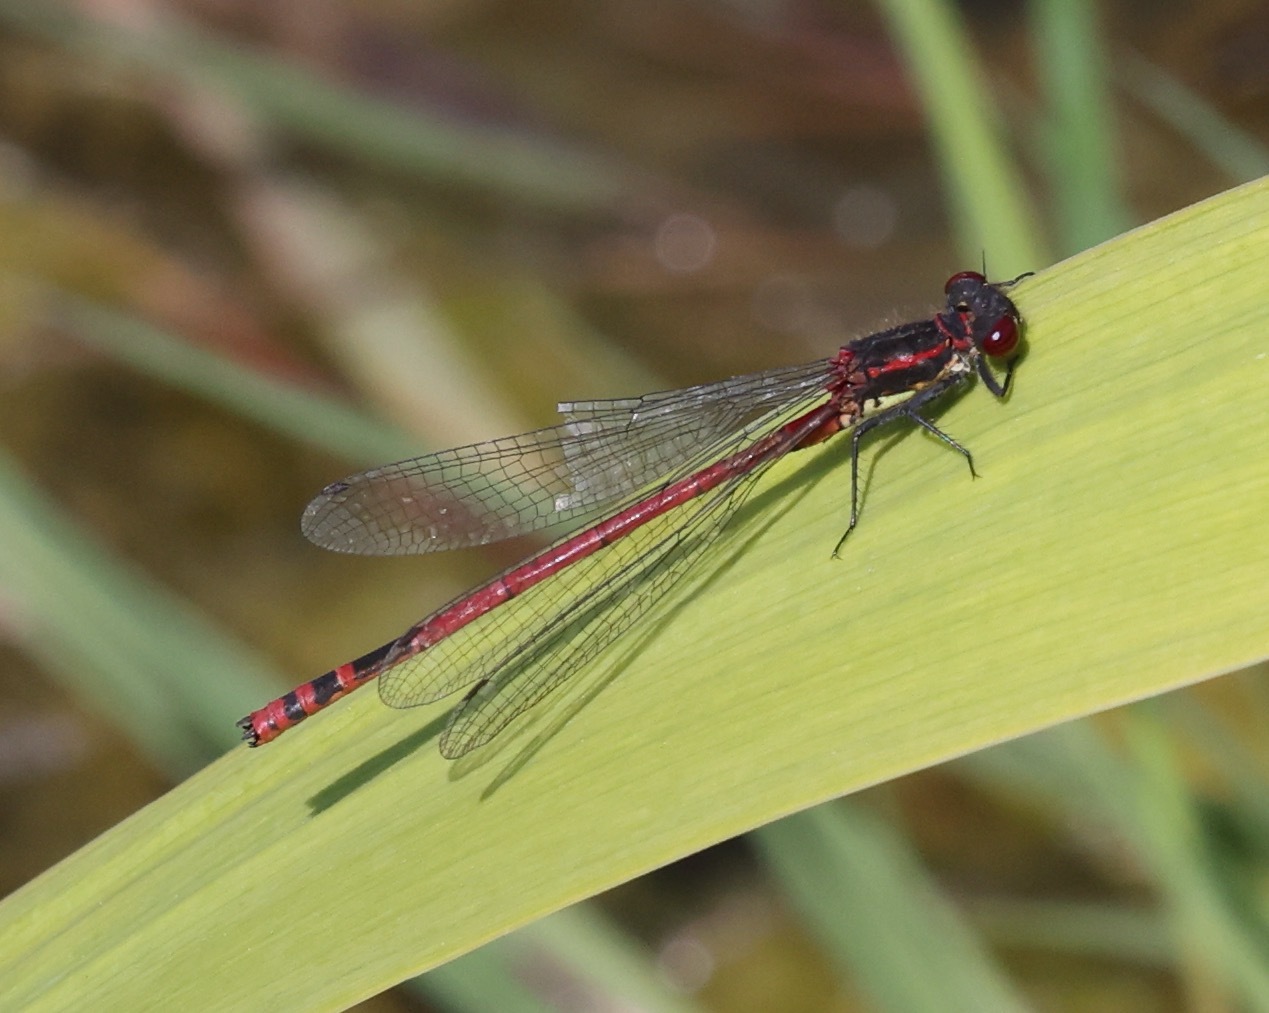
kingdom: Animalia
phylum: Arthropoda
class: Insecta
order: Odonata
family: Coenagrionidae
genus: Pyrrhosoma
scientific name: Pyrrhosoma nymphula
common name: Large red damsel
